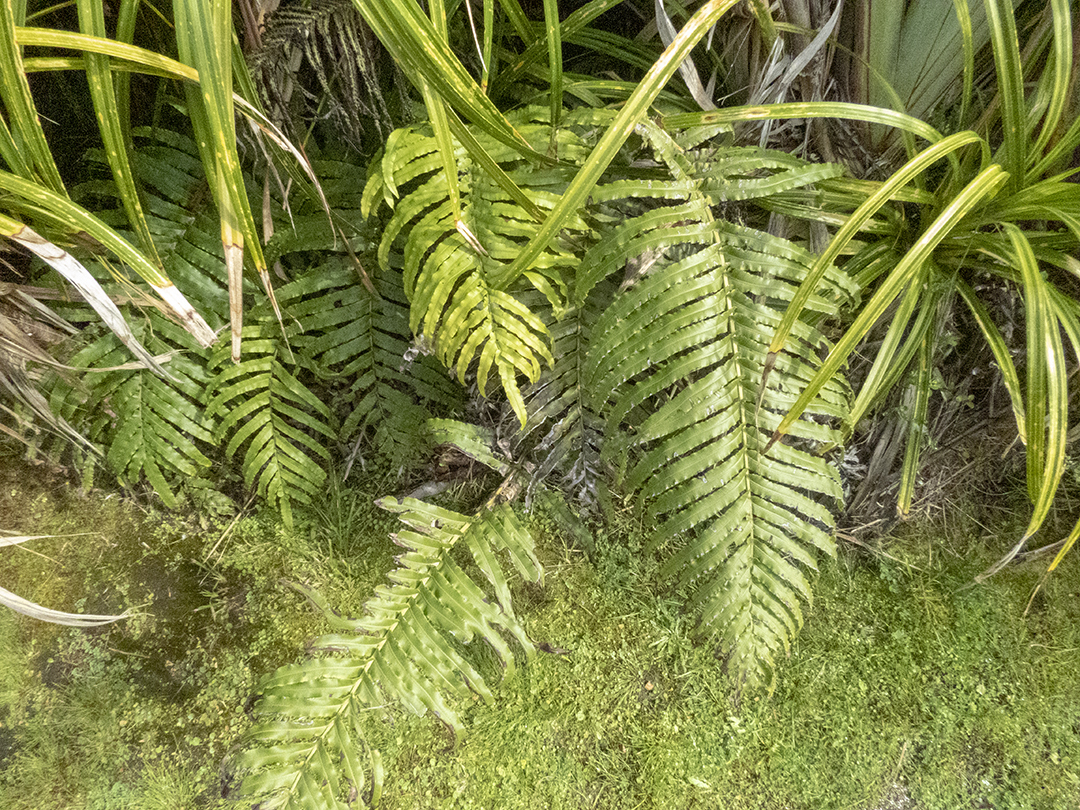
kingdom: Plantae
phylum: Tracheophyta
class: Polypodiopsida
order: Polypodiales
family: Blechnaceae
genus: Parablechnum
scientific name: Parablechnum novae-zelandiae
